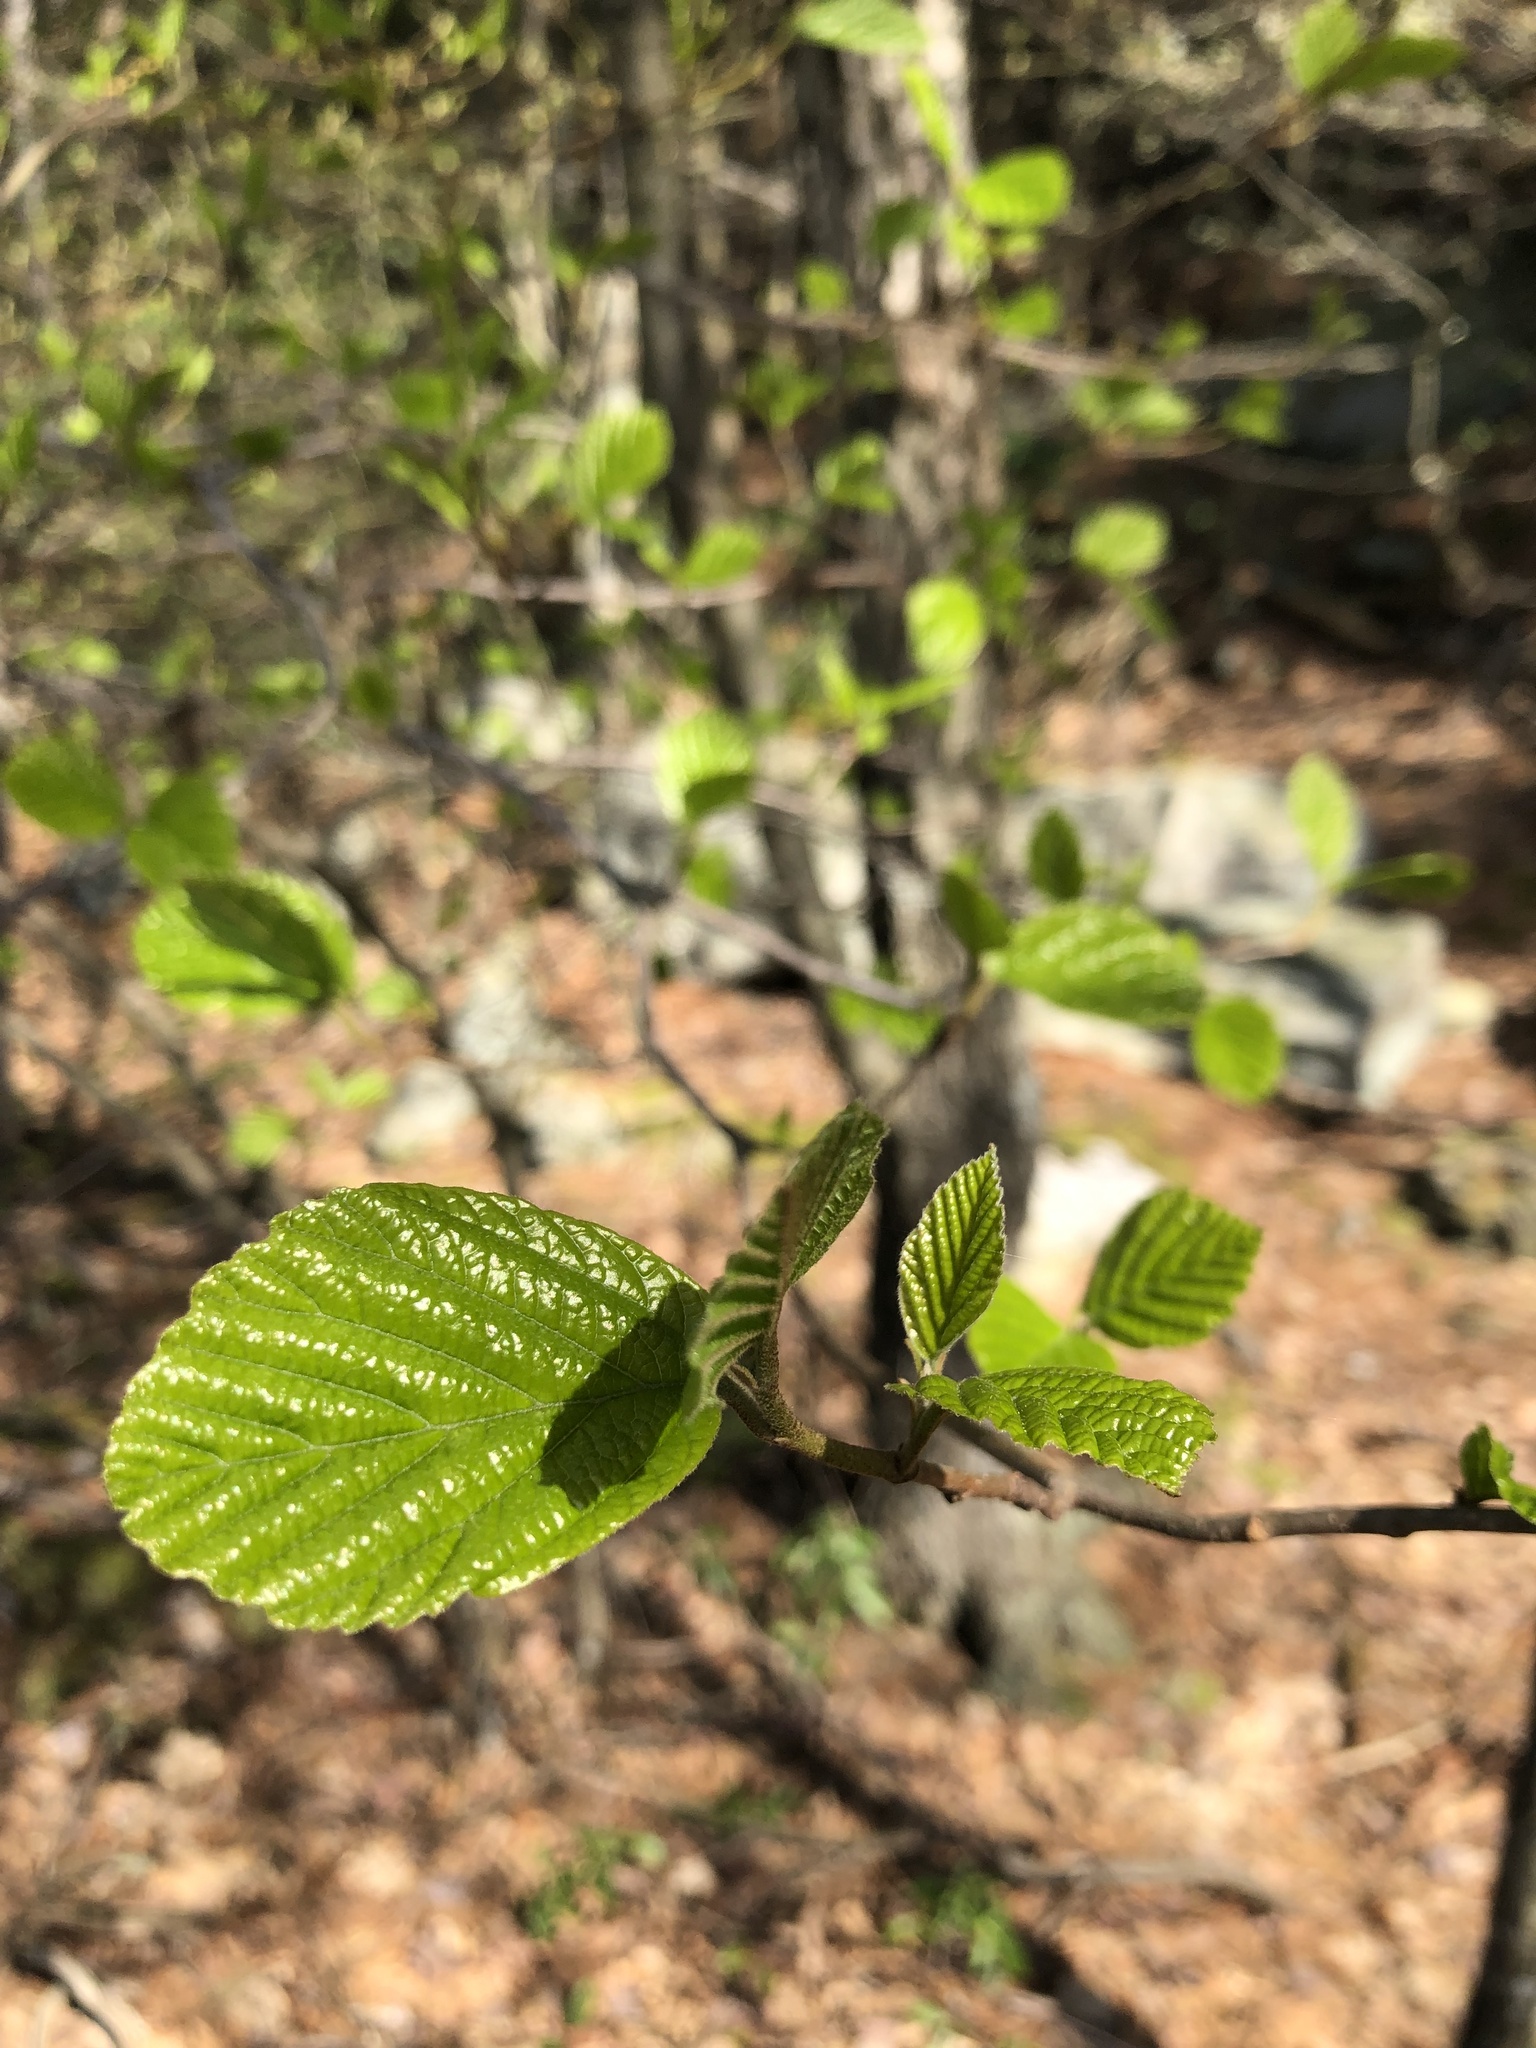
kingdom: Plantae
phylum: Tracheophyta
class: Magnoliopsida
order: Saxifragales
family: Hamamelidaceae
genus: Hamamelis
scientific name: Hamamelis virginiana
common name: Witch-hazel
